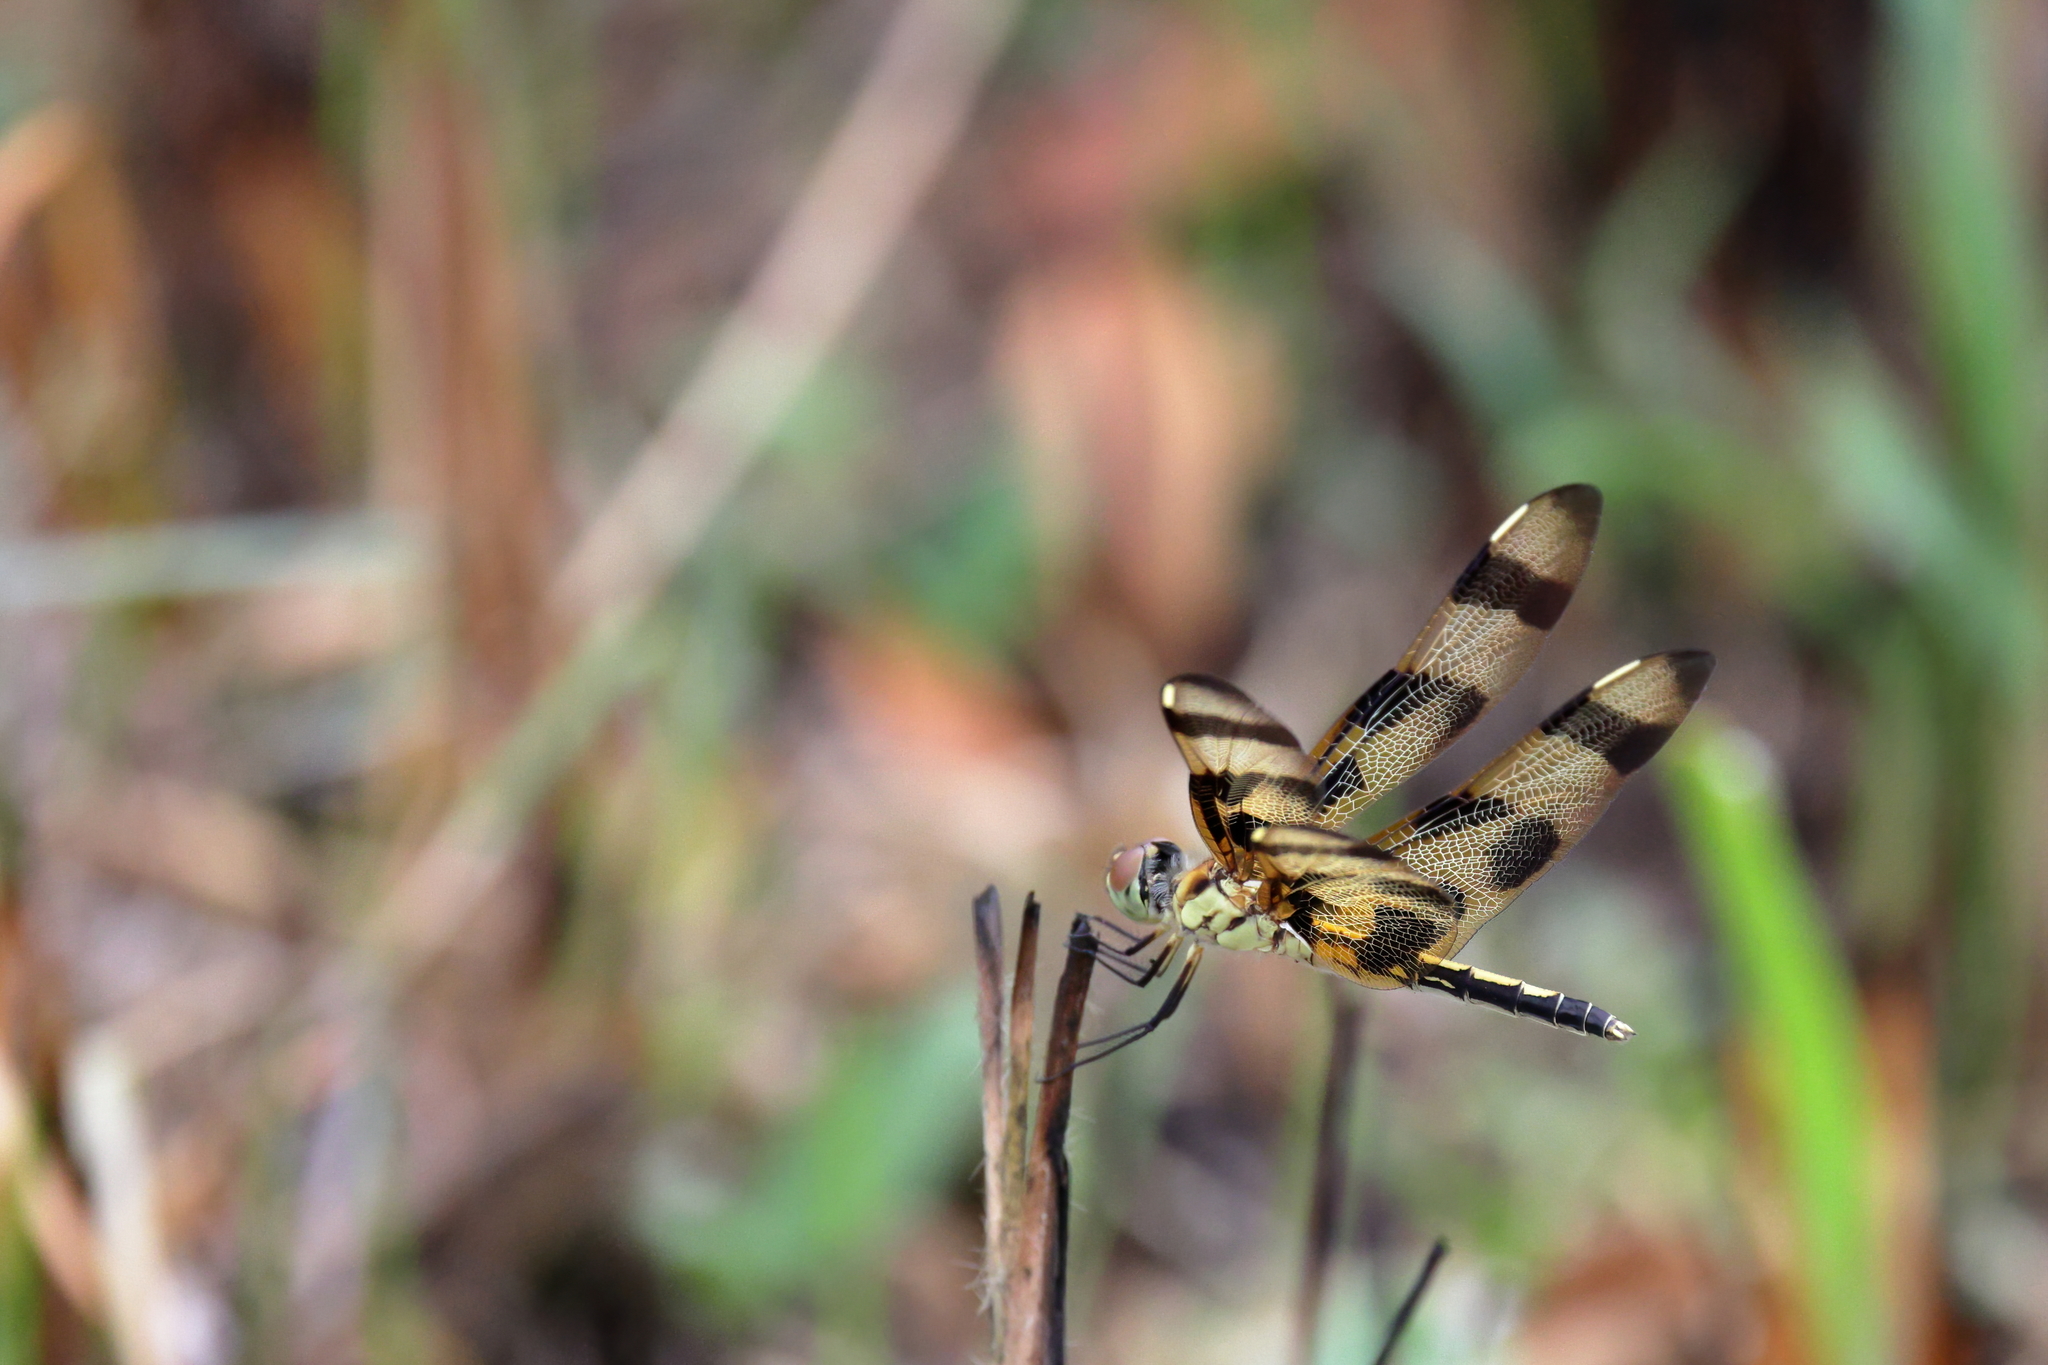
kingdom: Animalia
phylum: Arthropoda
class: Insecta
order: Odonata
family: Libellulidae
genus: Celithemis
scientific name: Celithemis eponina
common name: Halloween pennant
